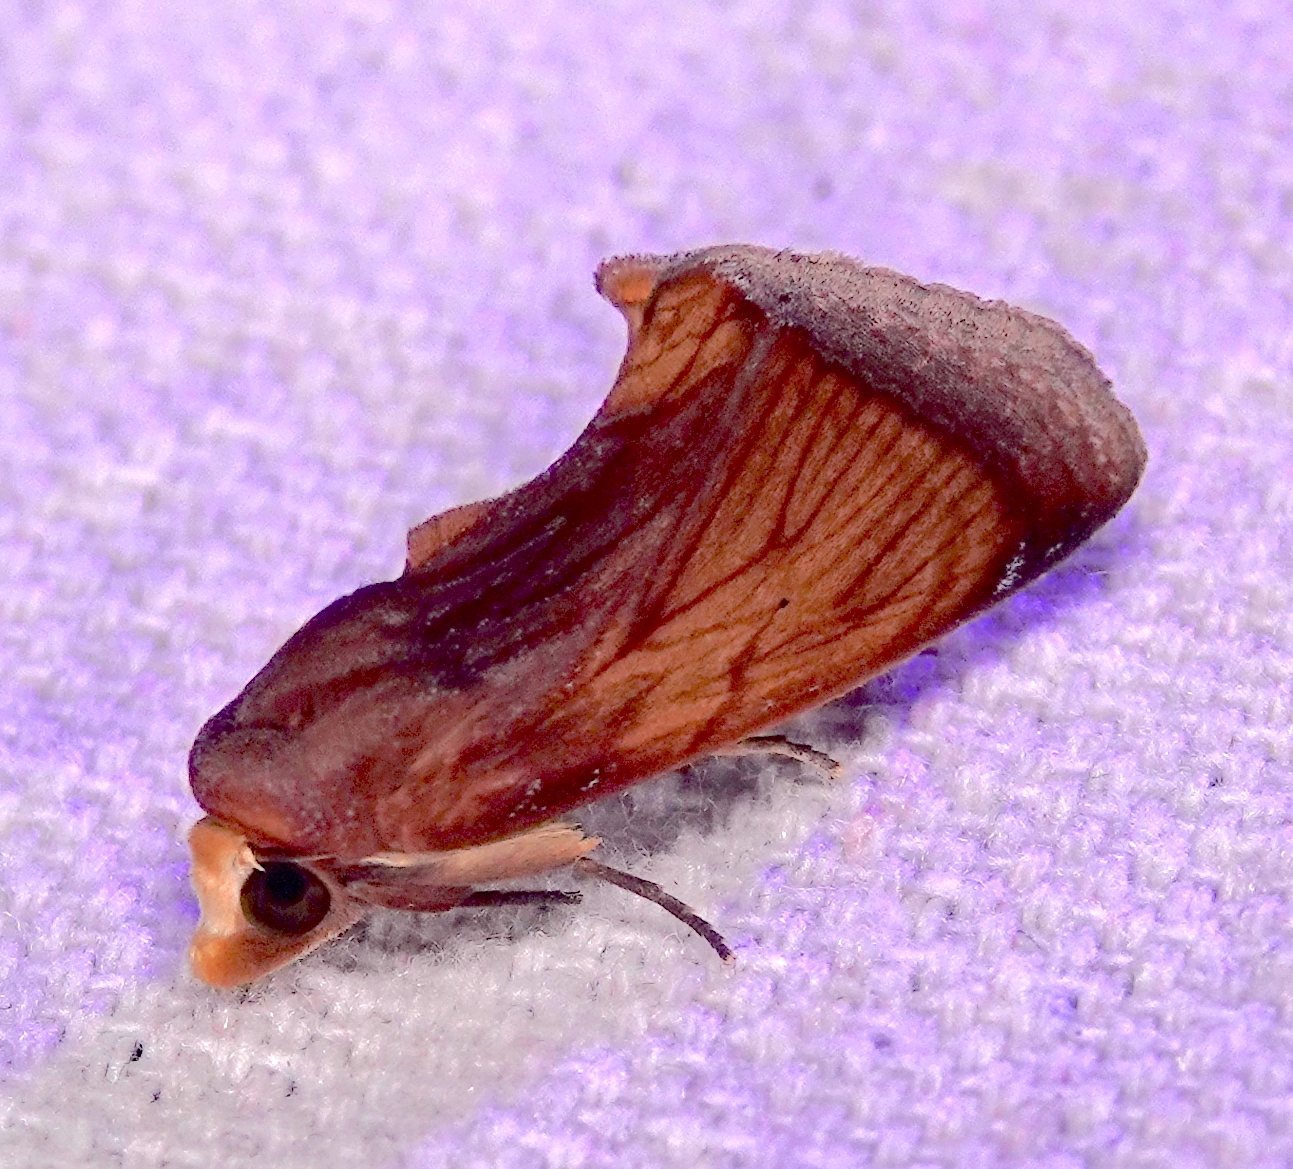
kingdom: Animalia
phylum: Arthropoda
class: Insecta
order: Lepidoptera
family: Erebidae
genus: Gonodonta
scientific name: Gonodonta incurva
